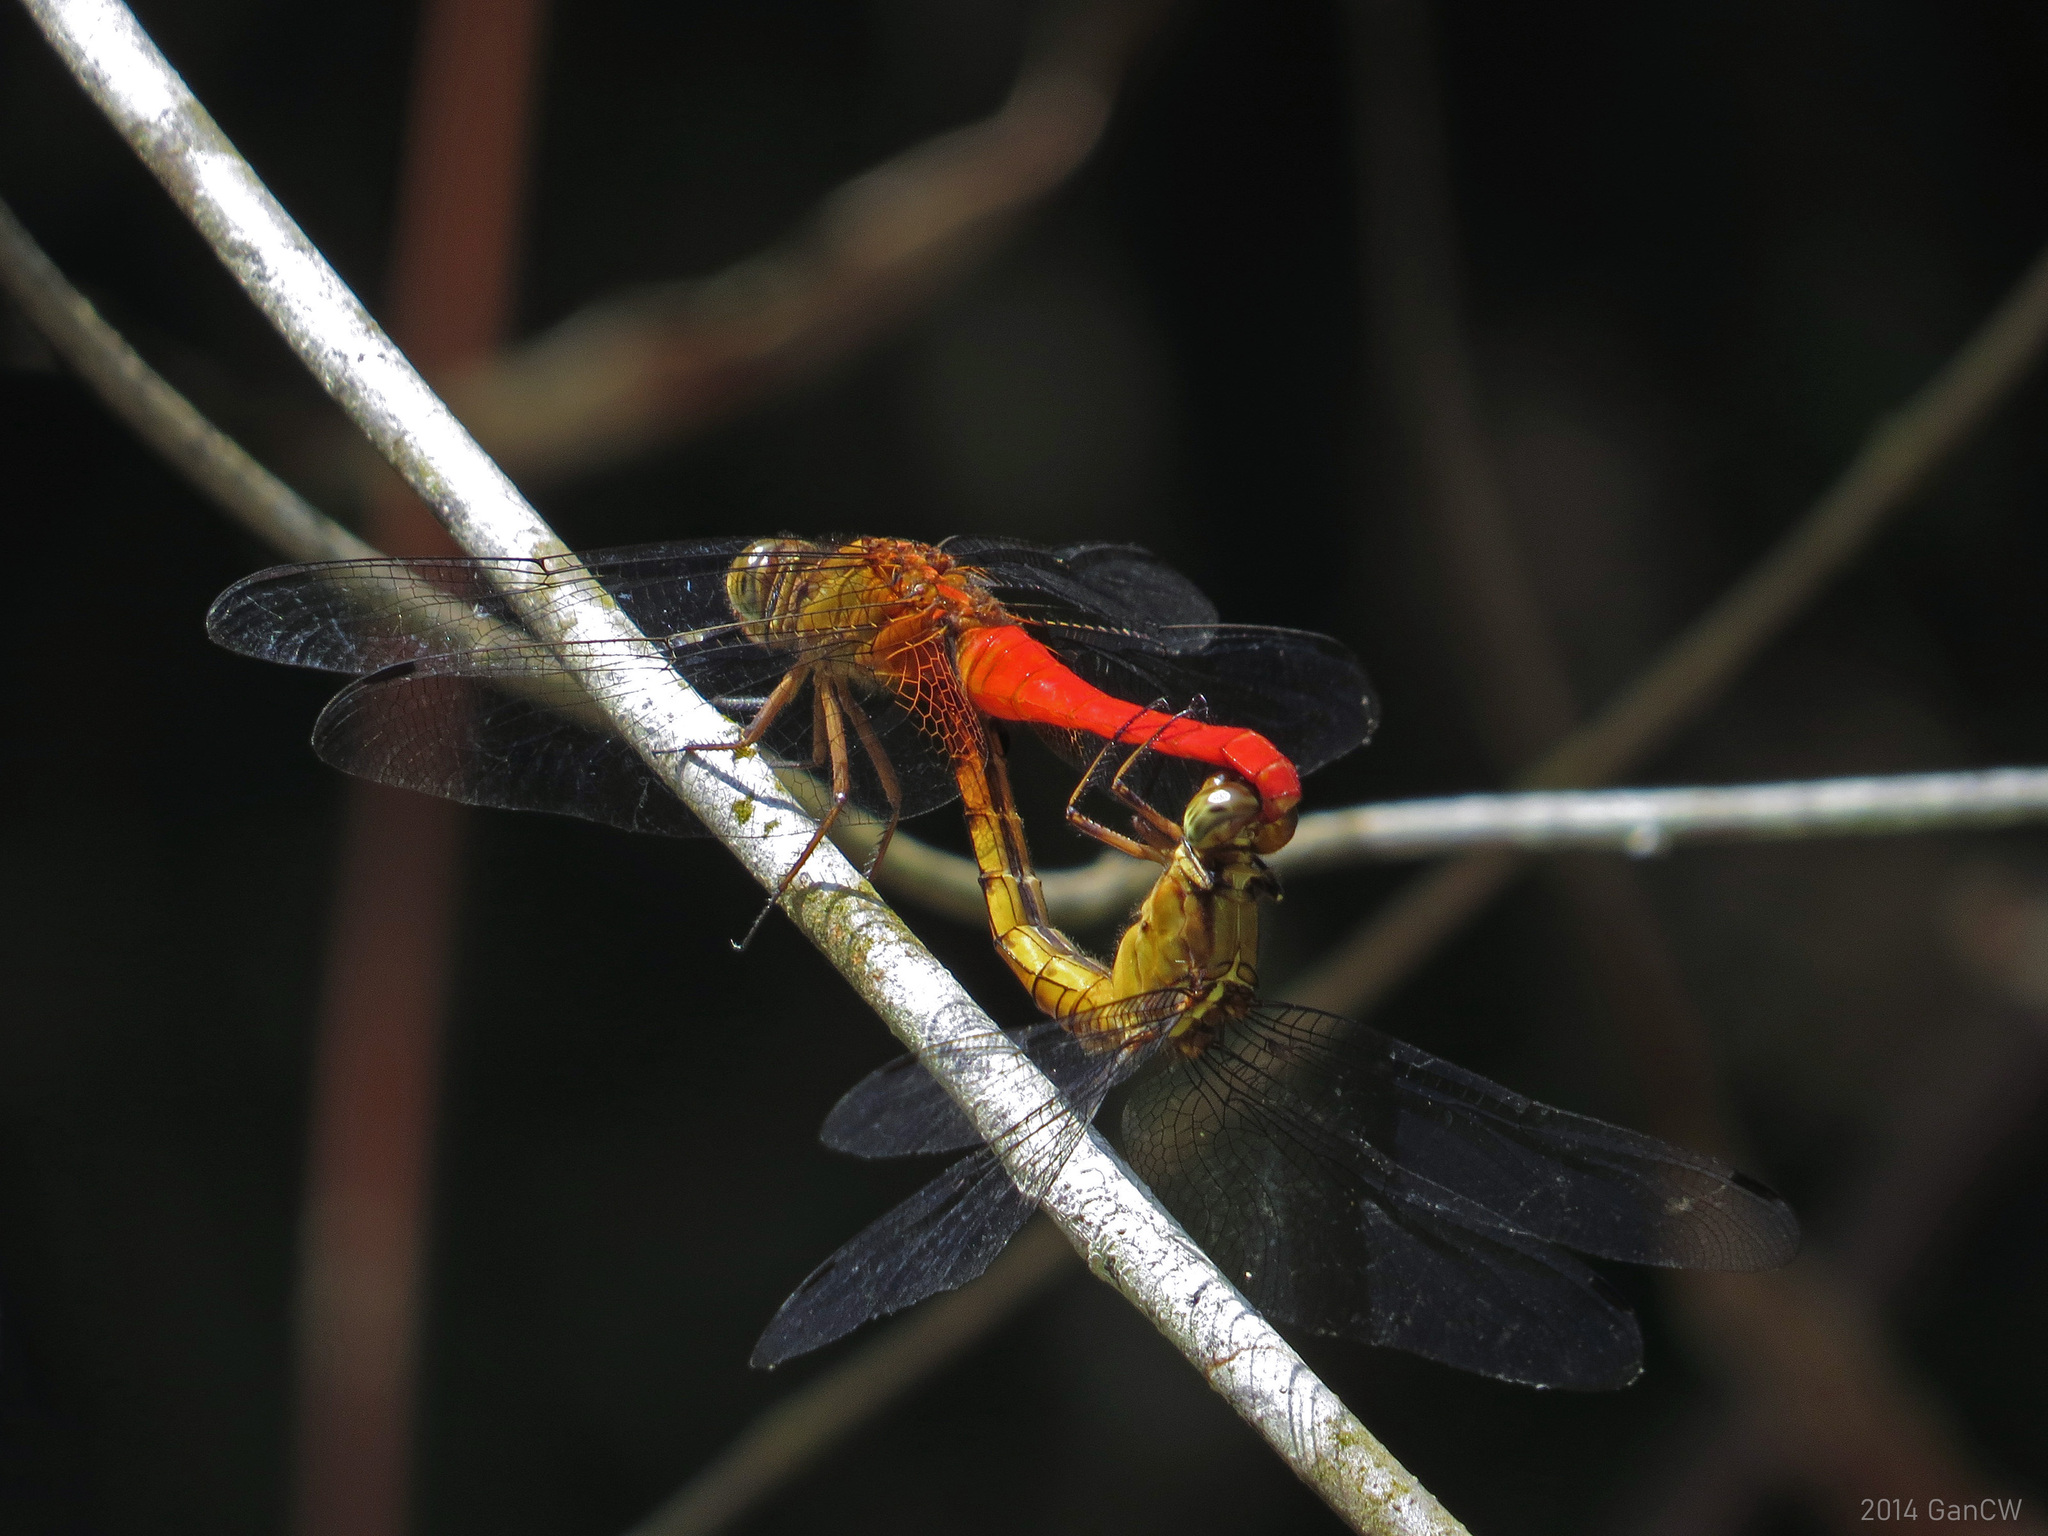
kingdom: Animalia
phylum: Arthropoda
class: Insecta
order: Odonata
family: Libellulidae
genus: Orthetrum
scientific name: Orthetrum testaceum
